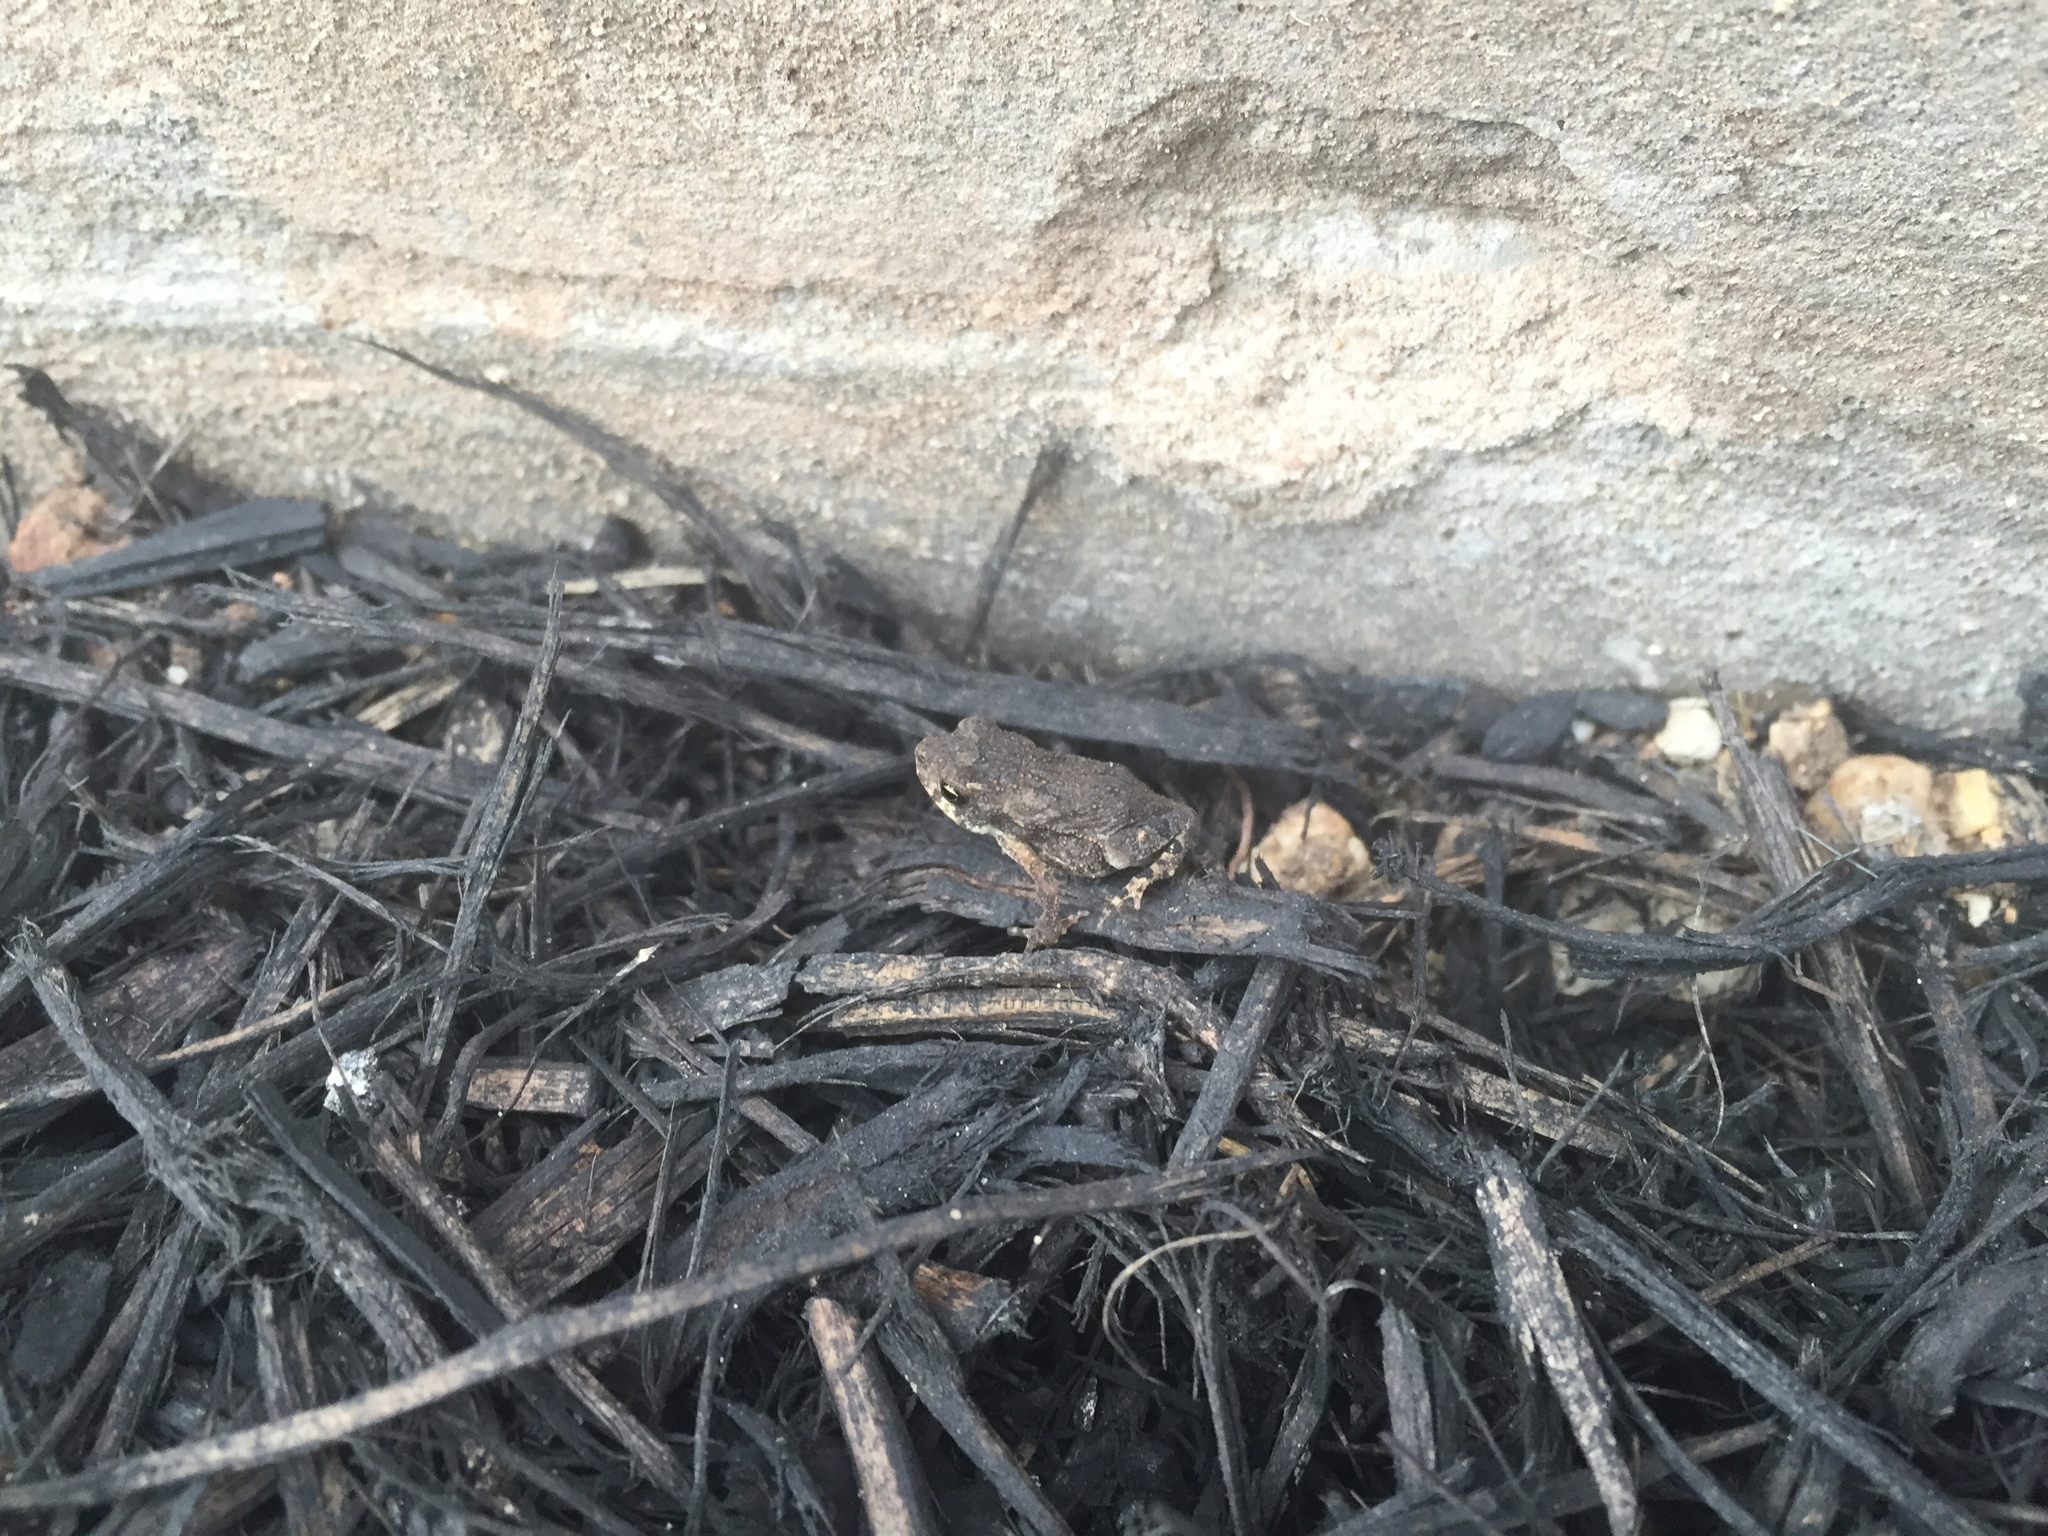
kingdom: Animalia
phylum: Chordata
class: Amphibia
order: Anura
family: Bufonidae
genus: Incilius
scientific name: Incilius nebulifer
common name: Gulf coast toad
